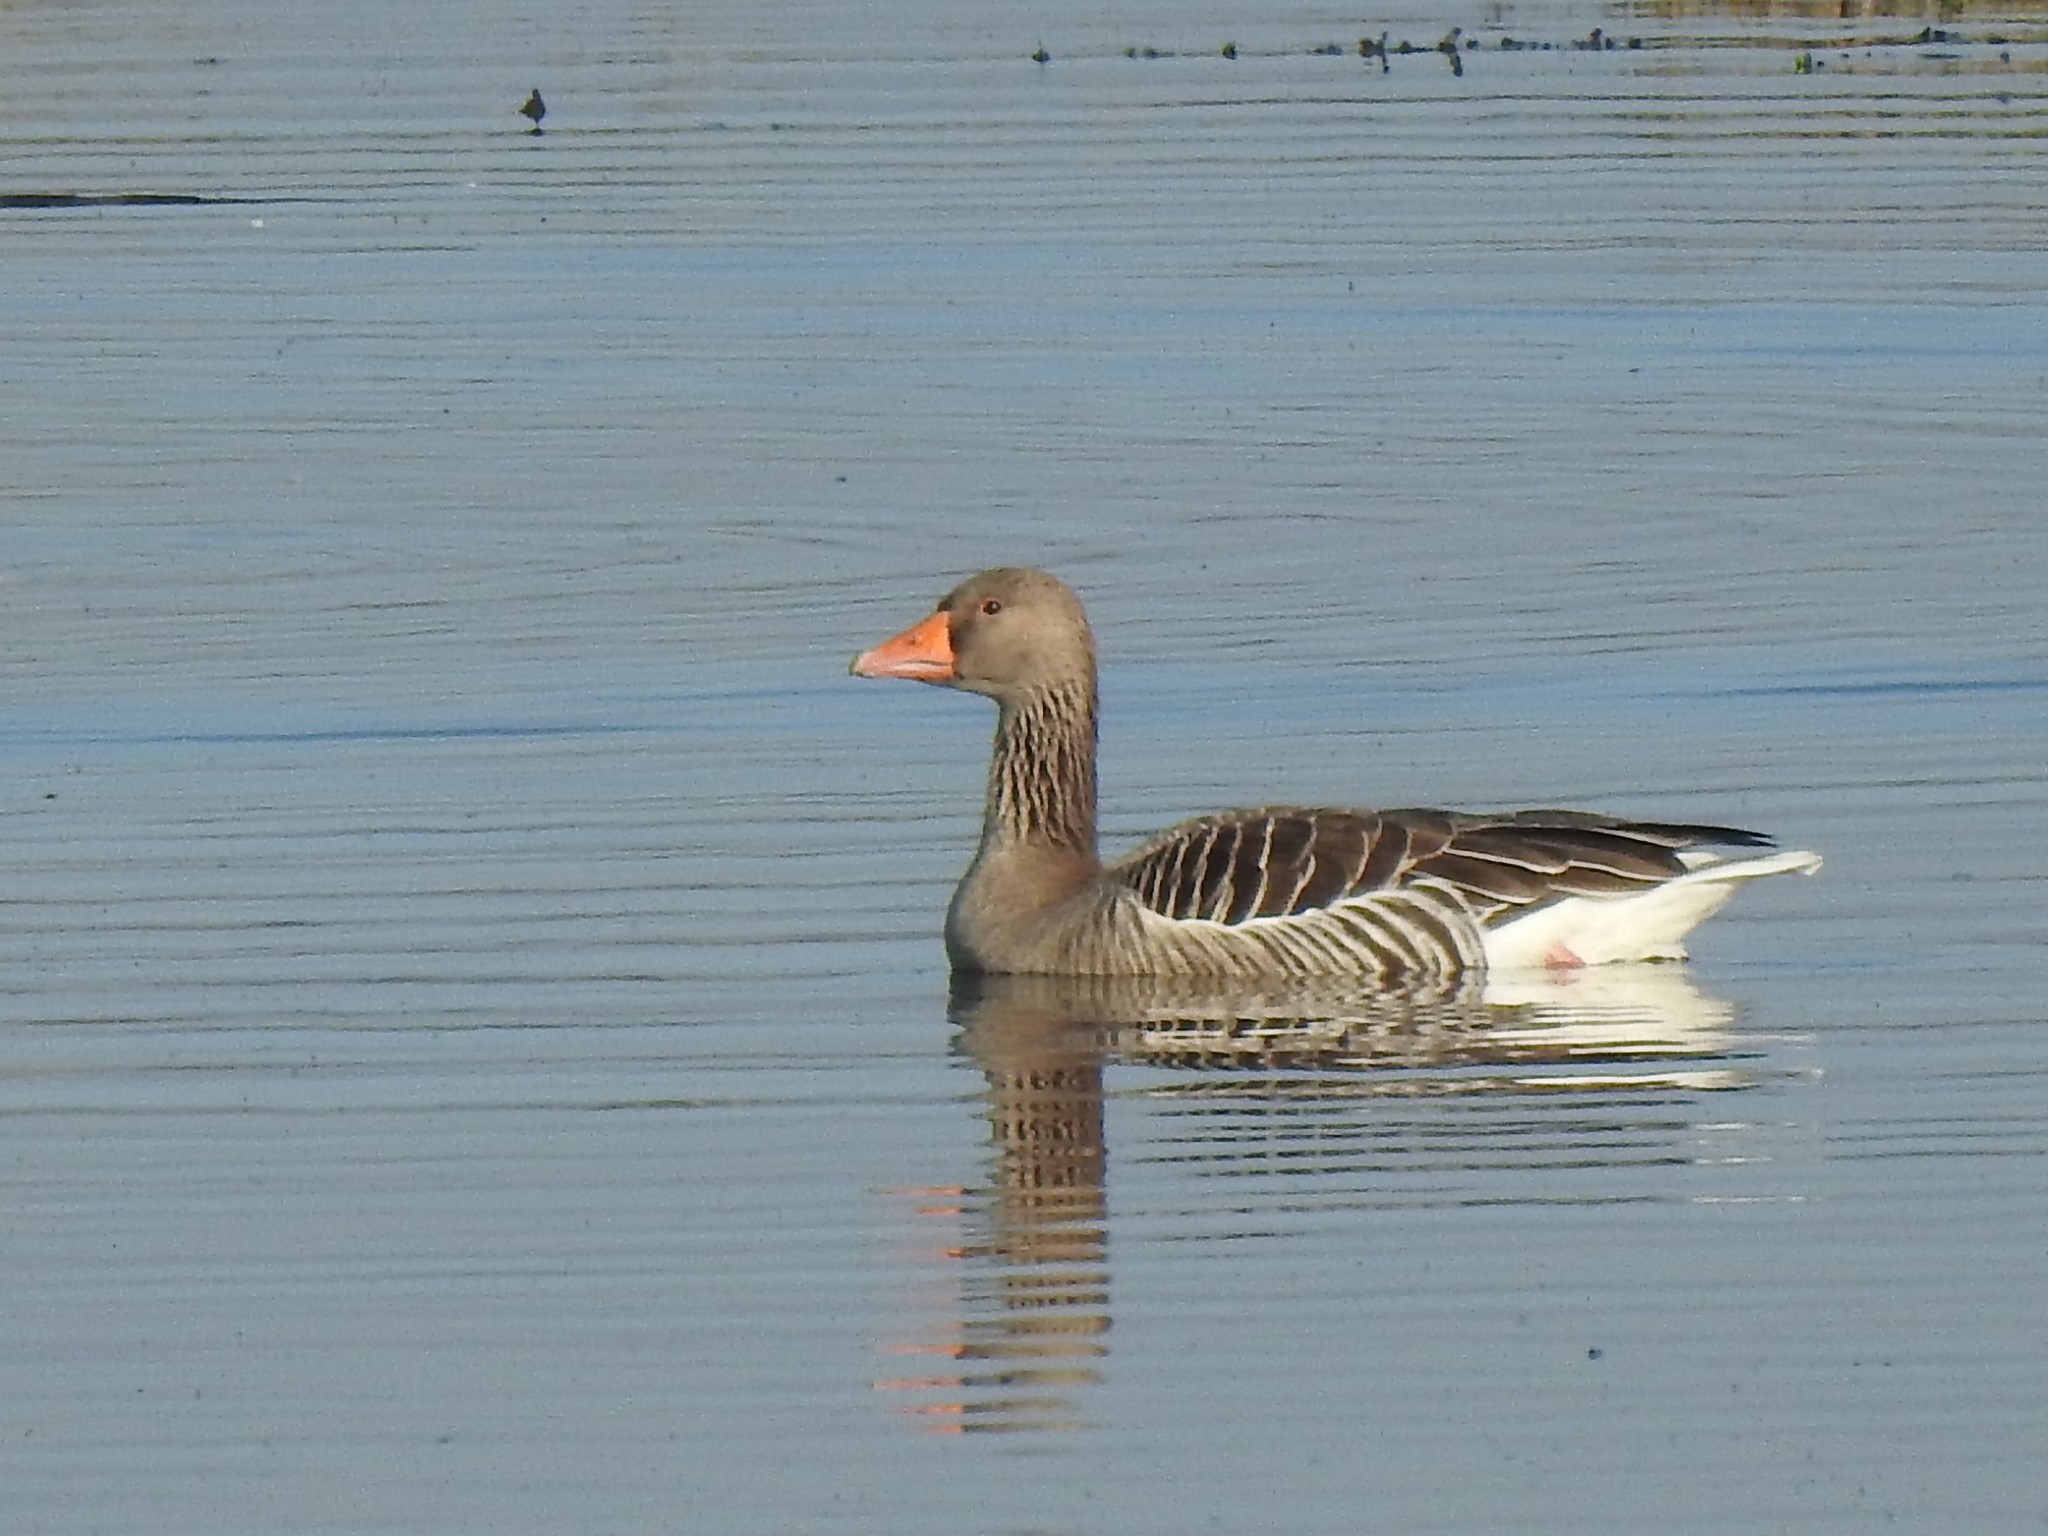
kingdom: Animalia
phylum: Chordata
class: Aves
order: Anseriformes
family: Anatidae
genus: Anser
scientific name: Anser anser
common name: Greylag goose
